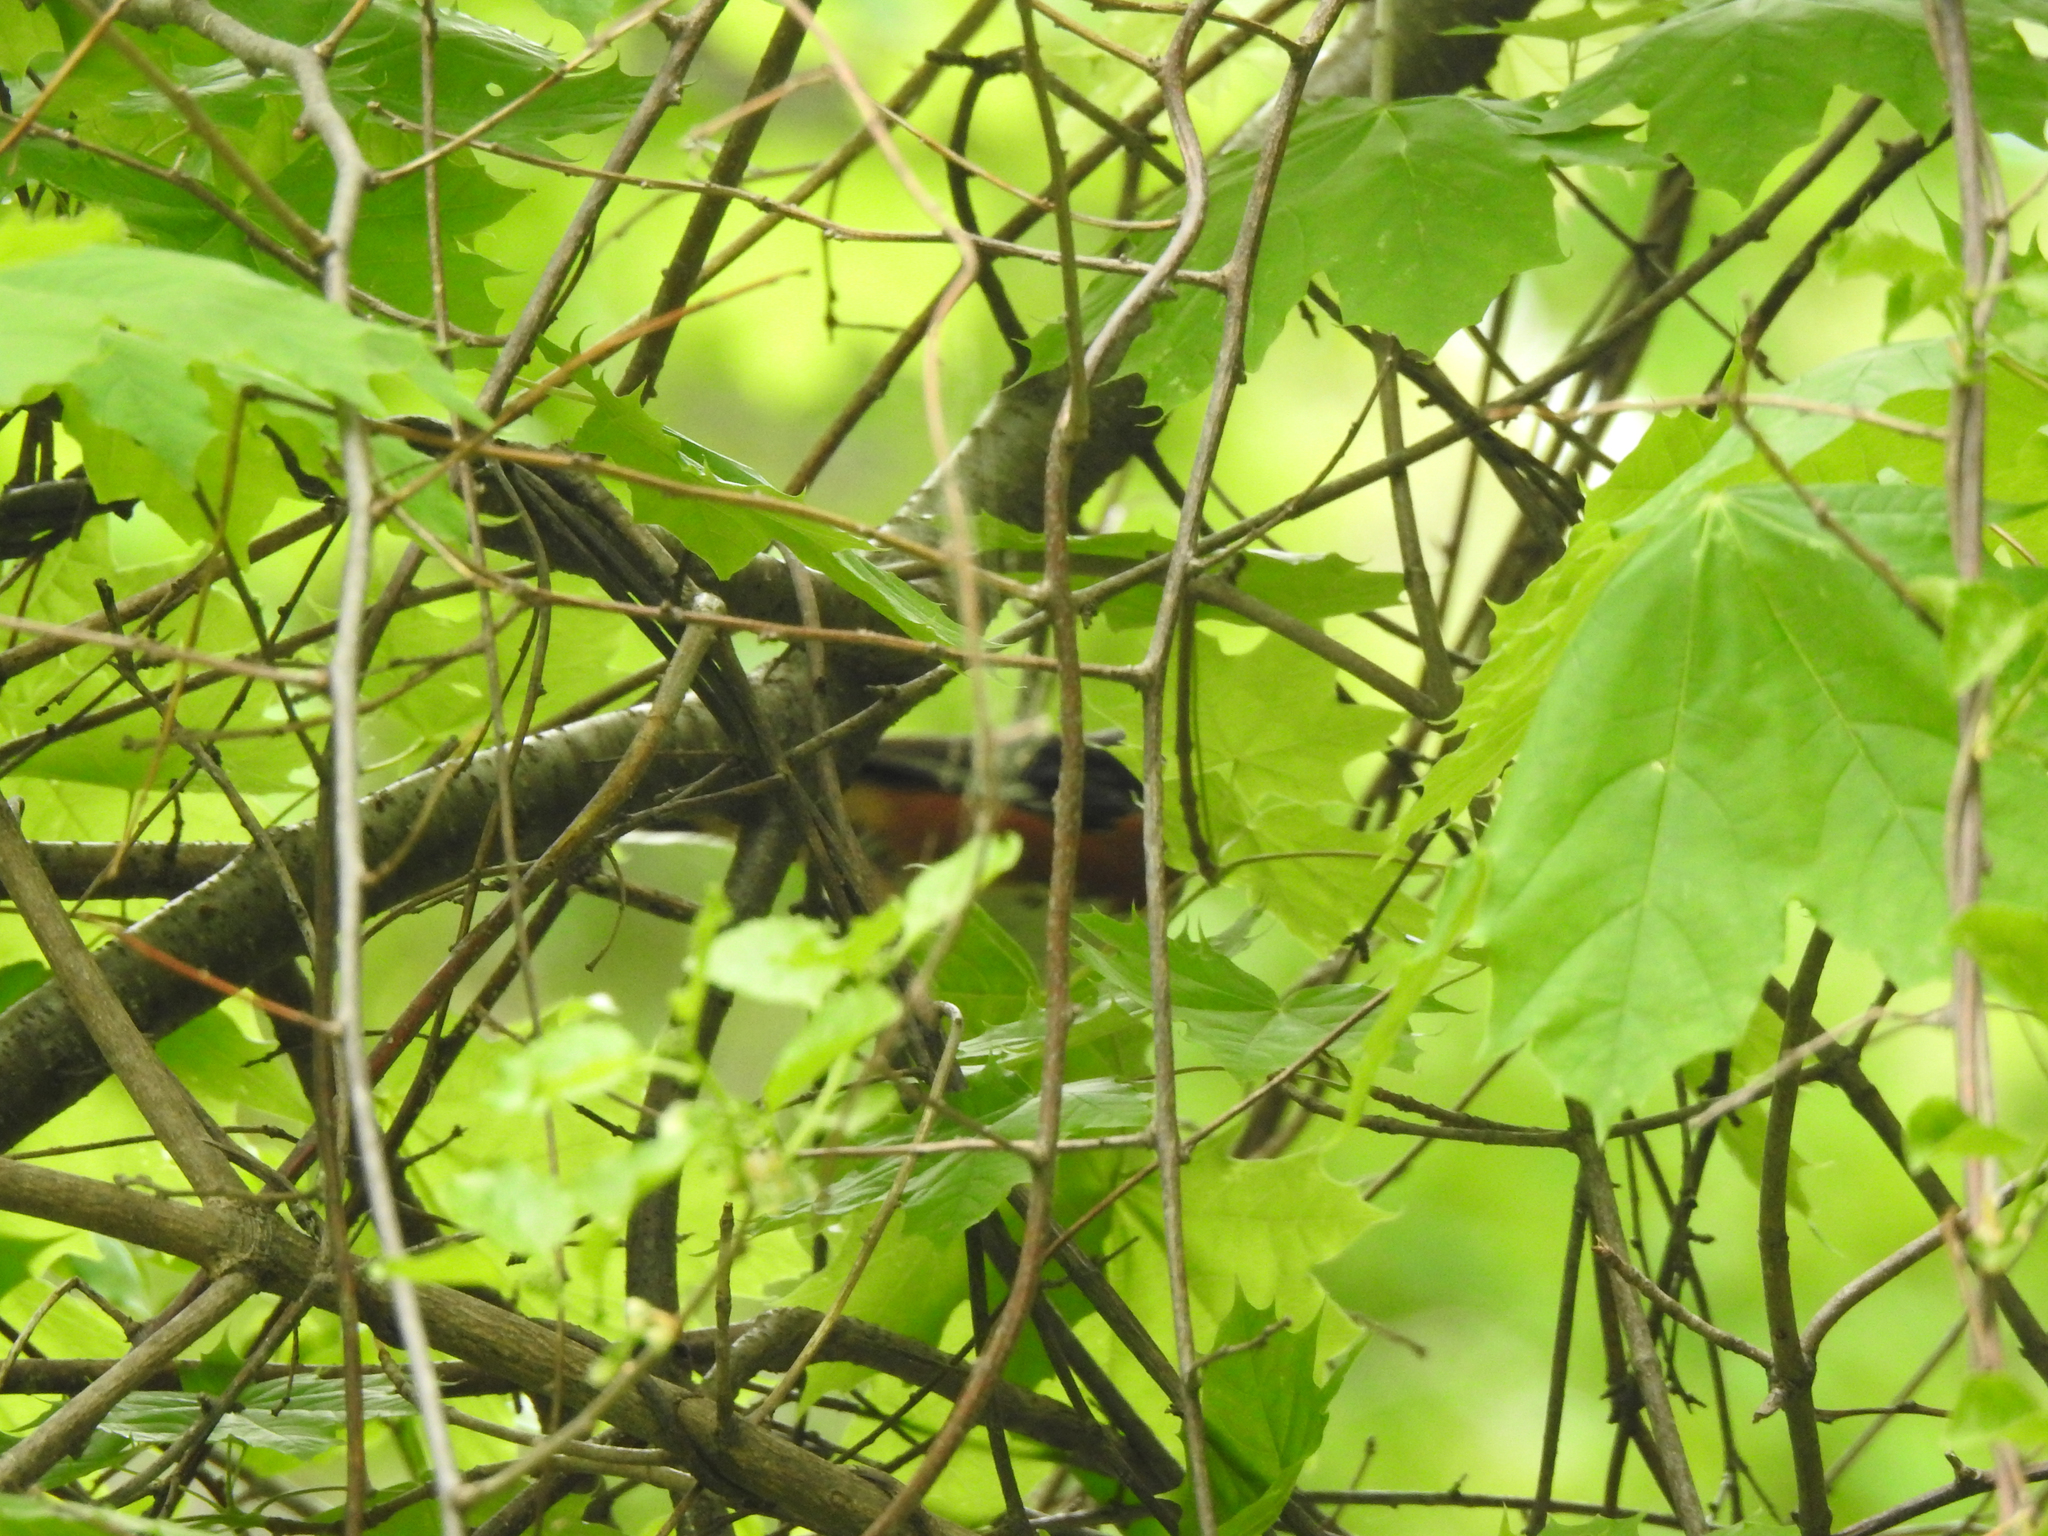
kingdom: Animalia
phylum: Chordata
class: Aves
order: Passeriformes
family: Passerellidae
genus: Pipilo
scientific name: Pipilo erythrophthalmus
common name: Eastern towhee
